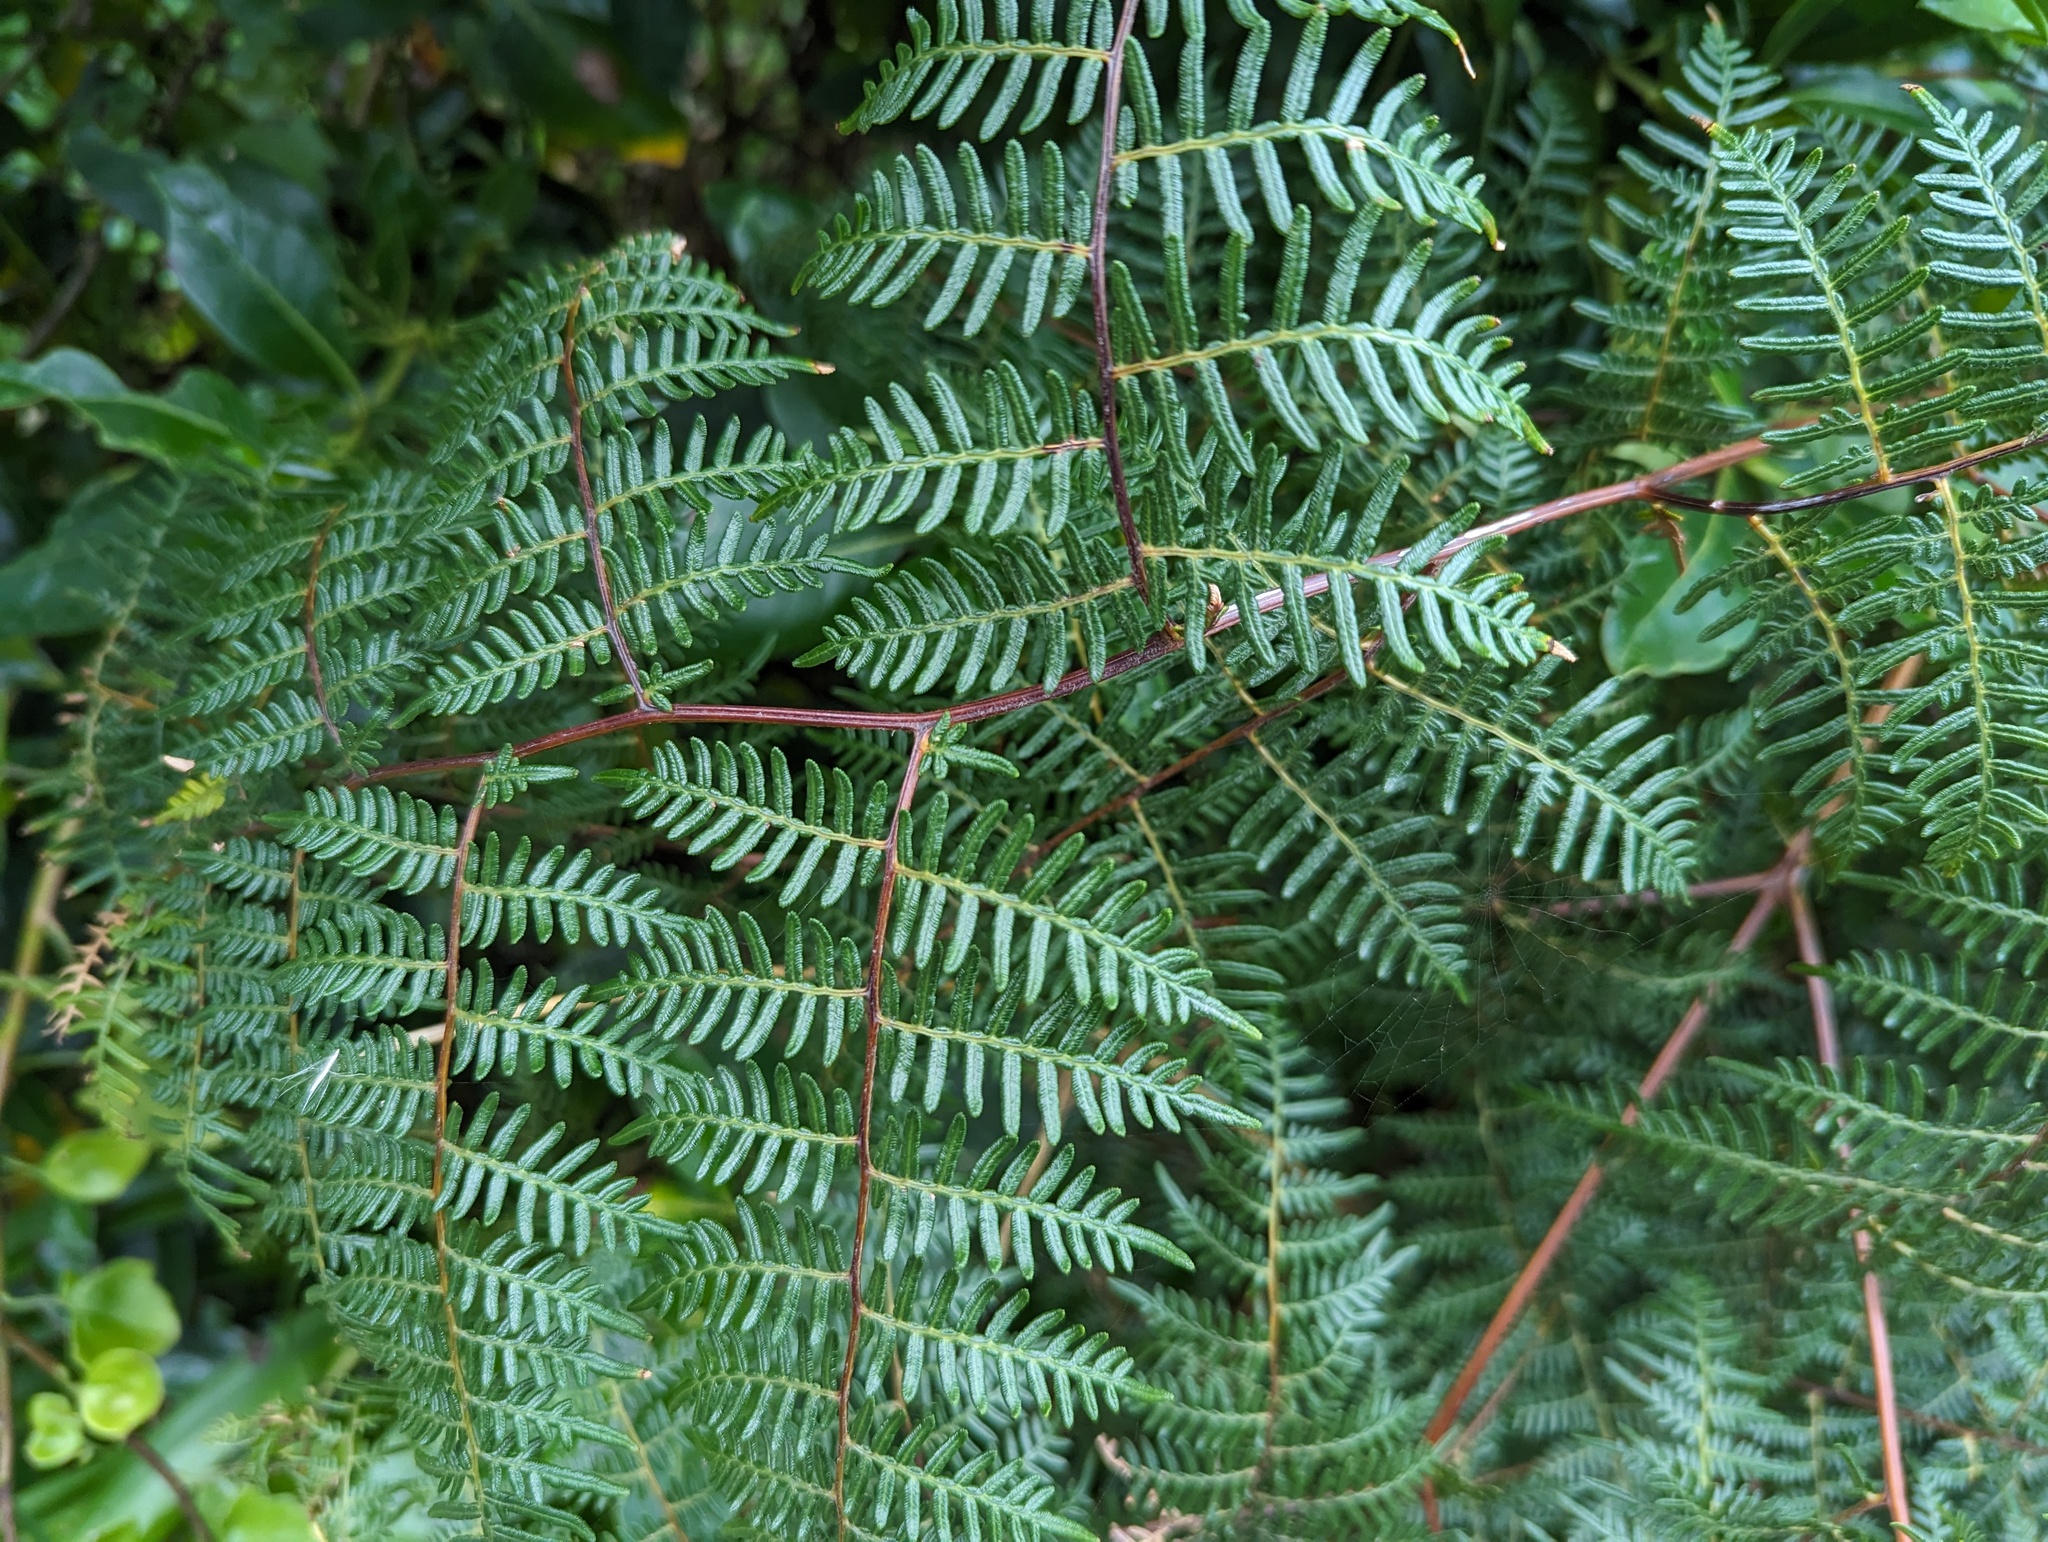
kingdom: Plantae
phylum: Tracheophyta
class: Polypodiopsida
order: Polypodiales
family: Dennstaedtiaceae
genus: Pteridium
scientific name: Pteridium esculentum
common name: Bracken fern
